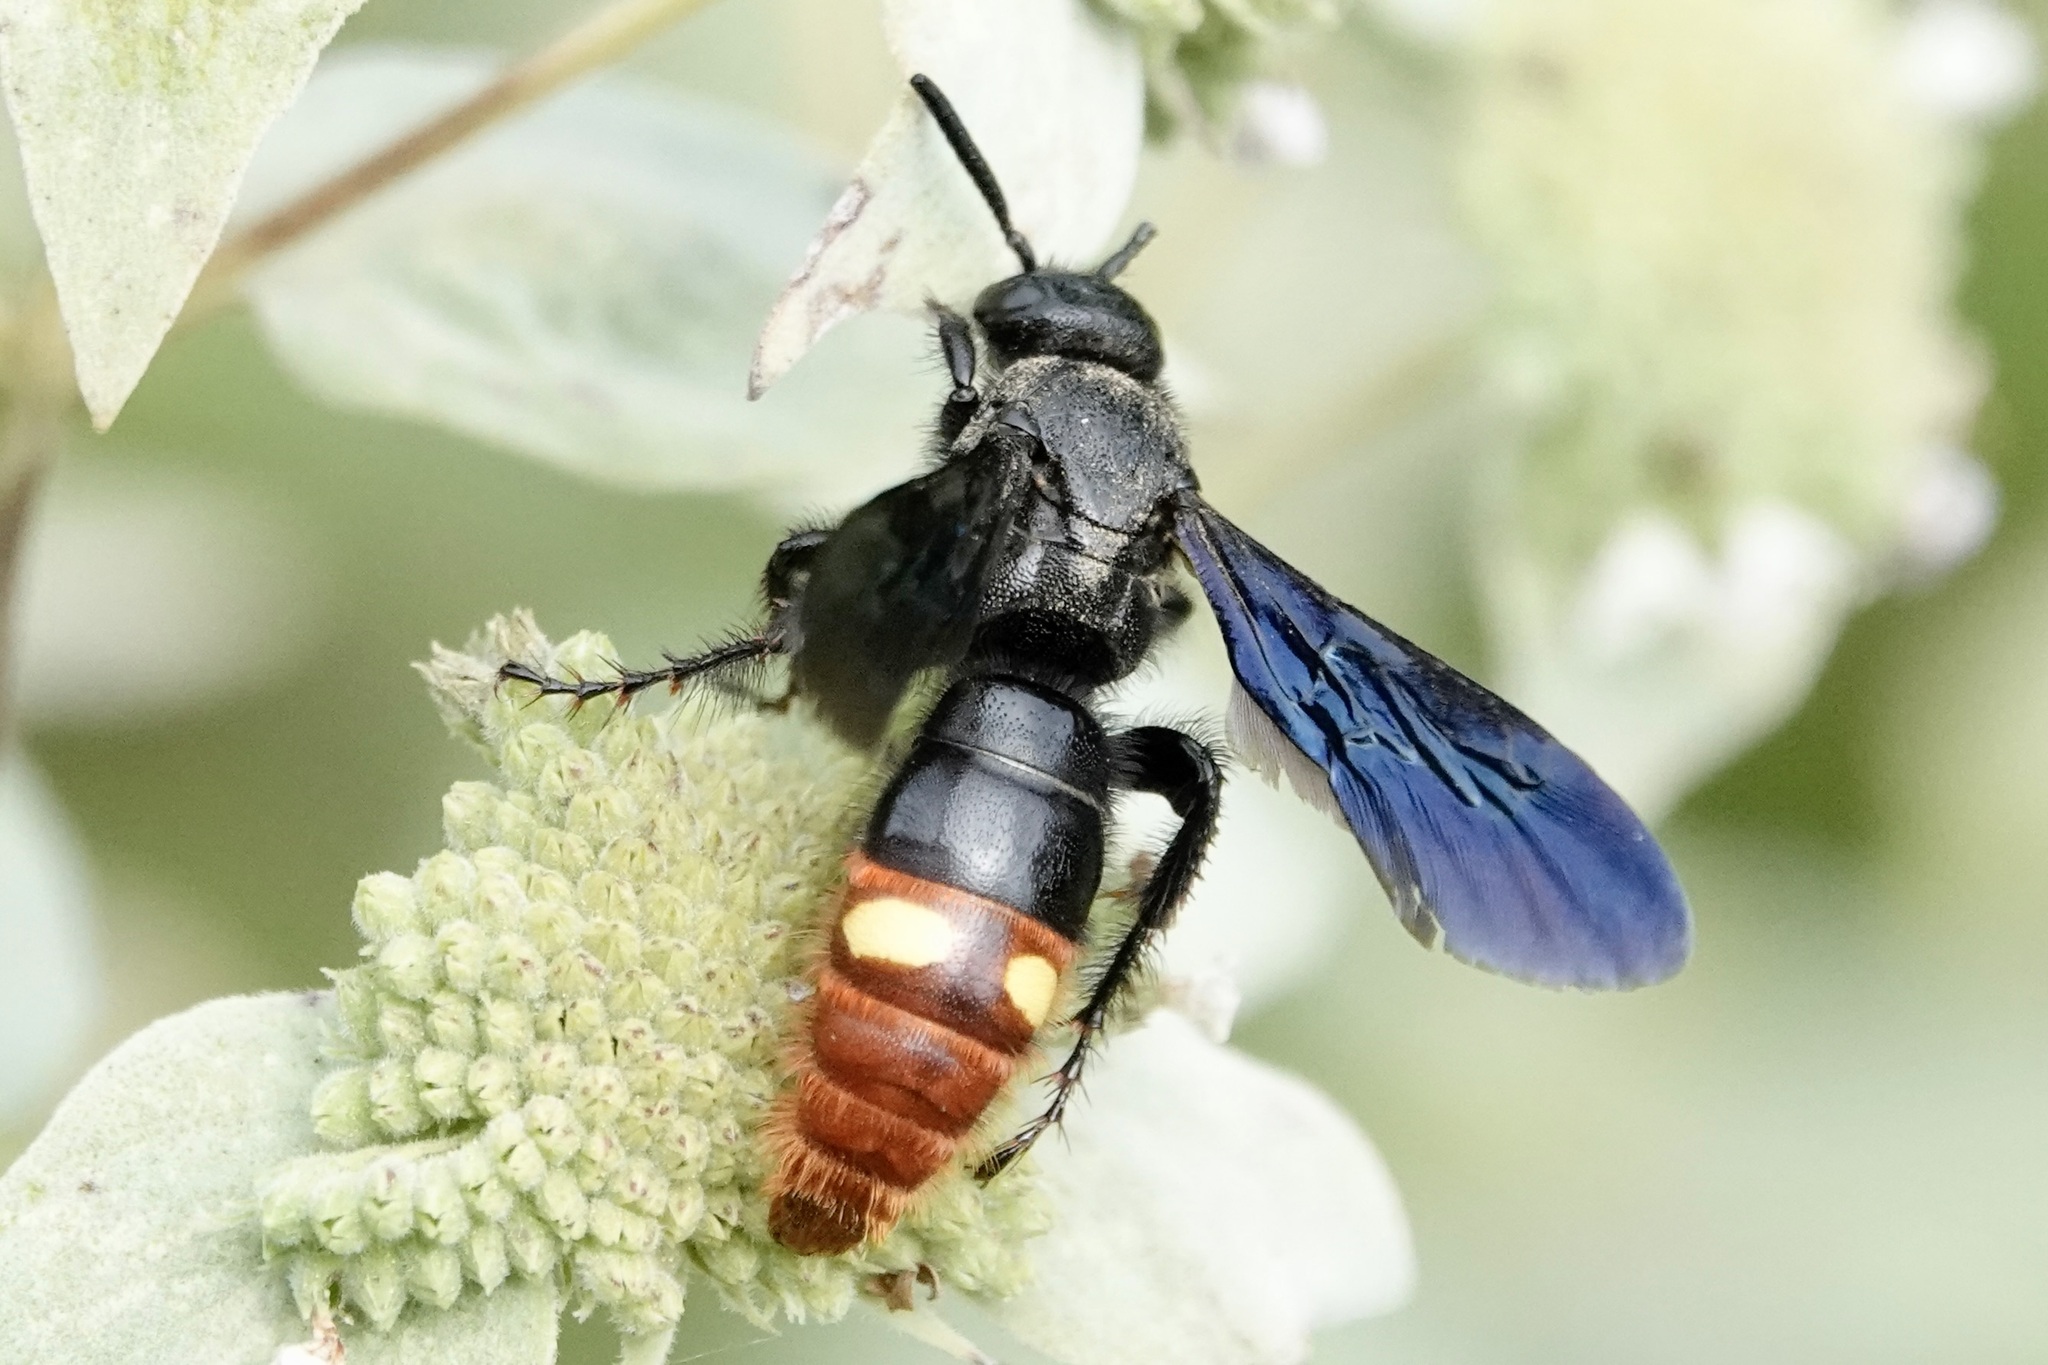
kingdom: Animalia
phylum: Arthropoda
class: Insecta
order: Hymenoptera
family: Scoliidae
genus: Scolia
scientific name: Scolia dubia
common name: Blue-winged scoliid wasp
